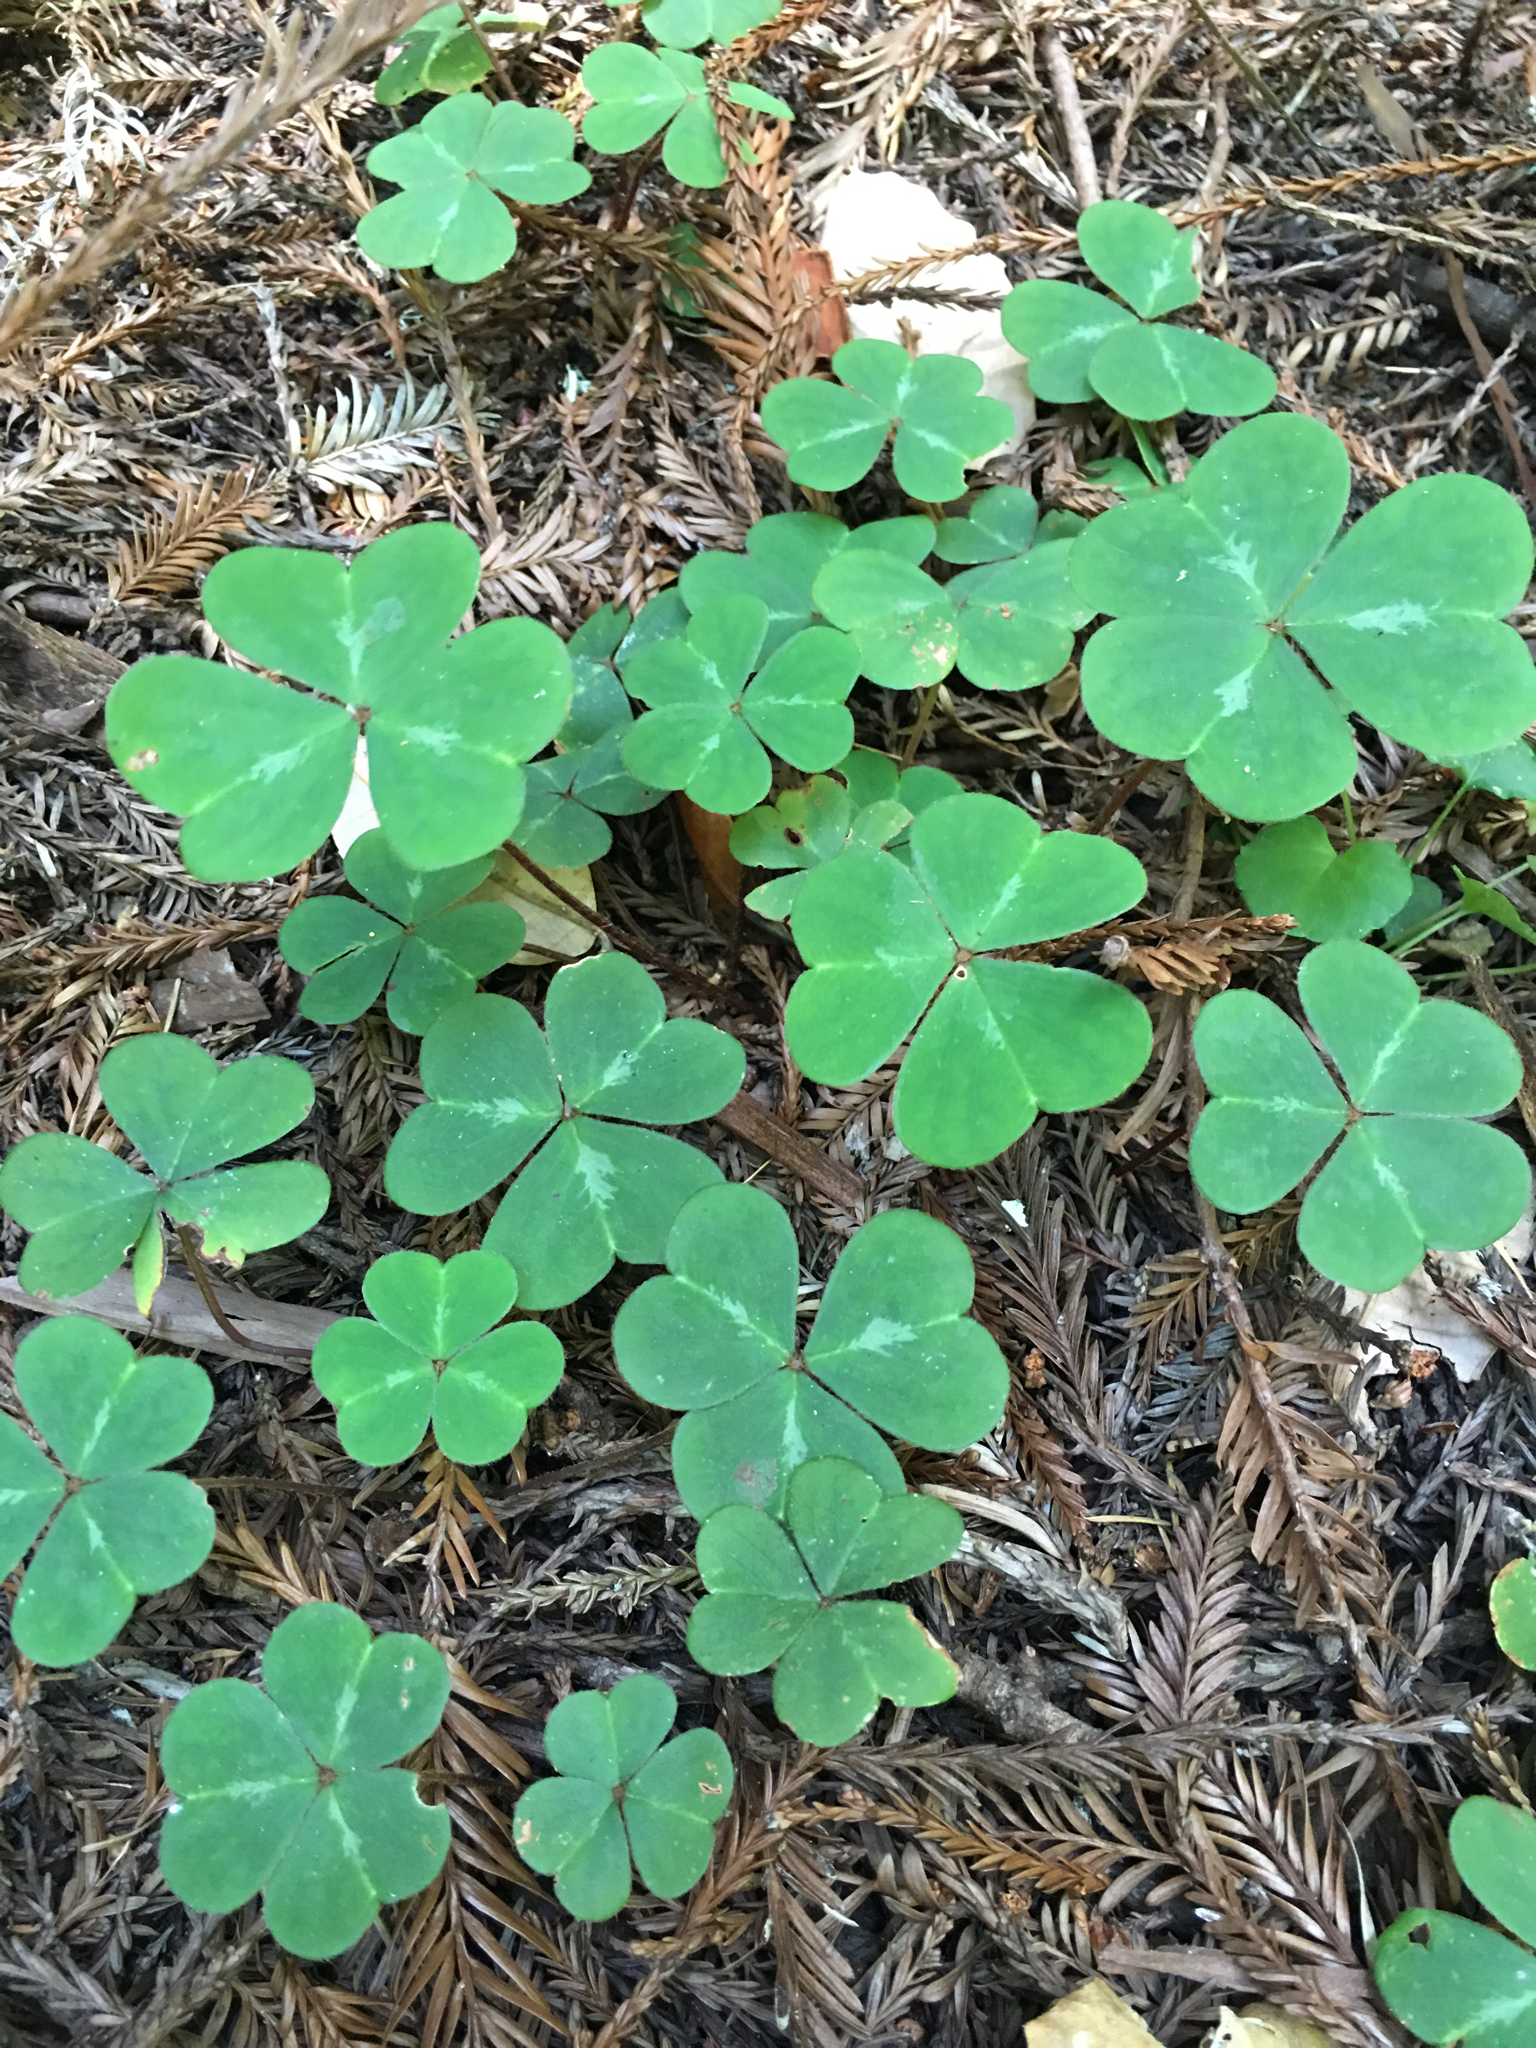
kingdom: Plantae
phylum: Tracheophyta
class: Magnoliopsida
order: Oxalidales
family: Oxalidaceae
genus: Oxalis
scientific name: Oxalis oregana
